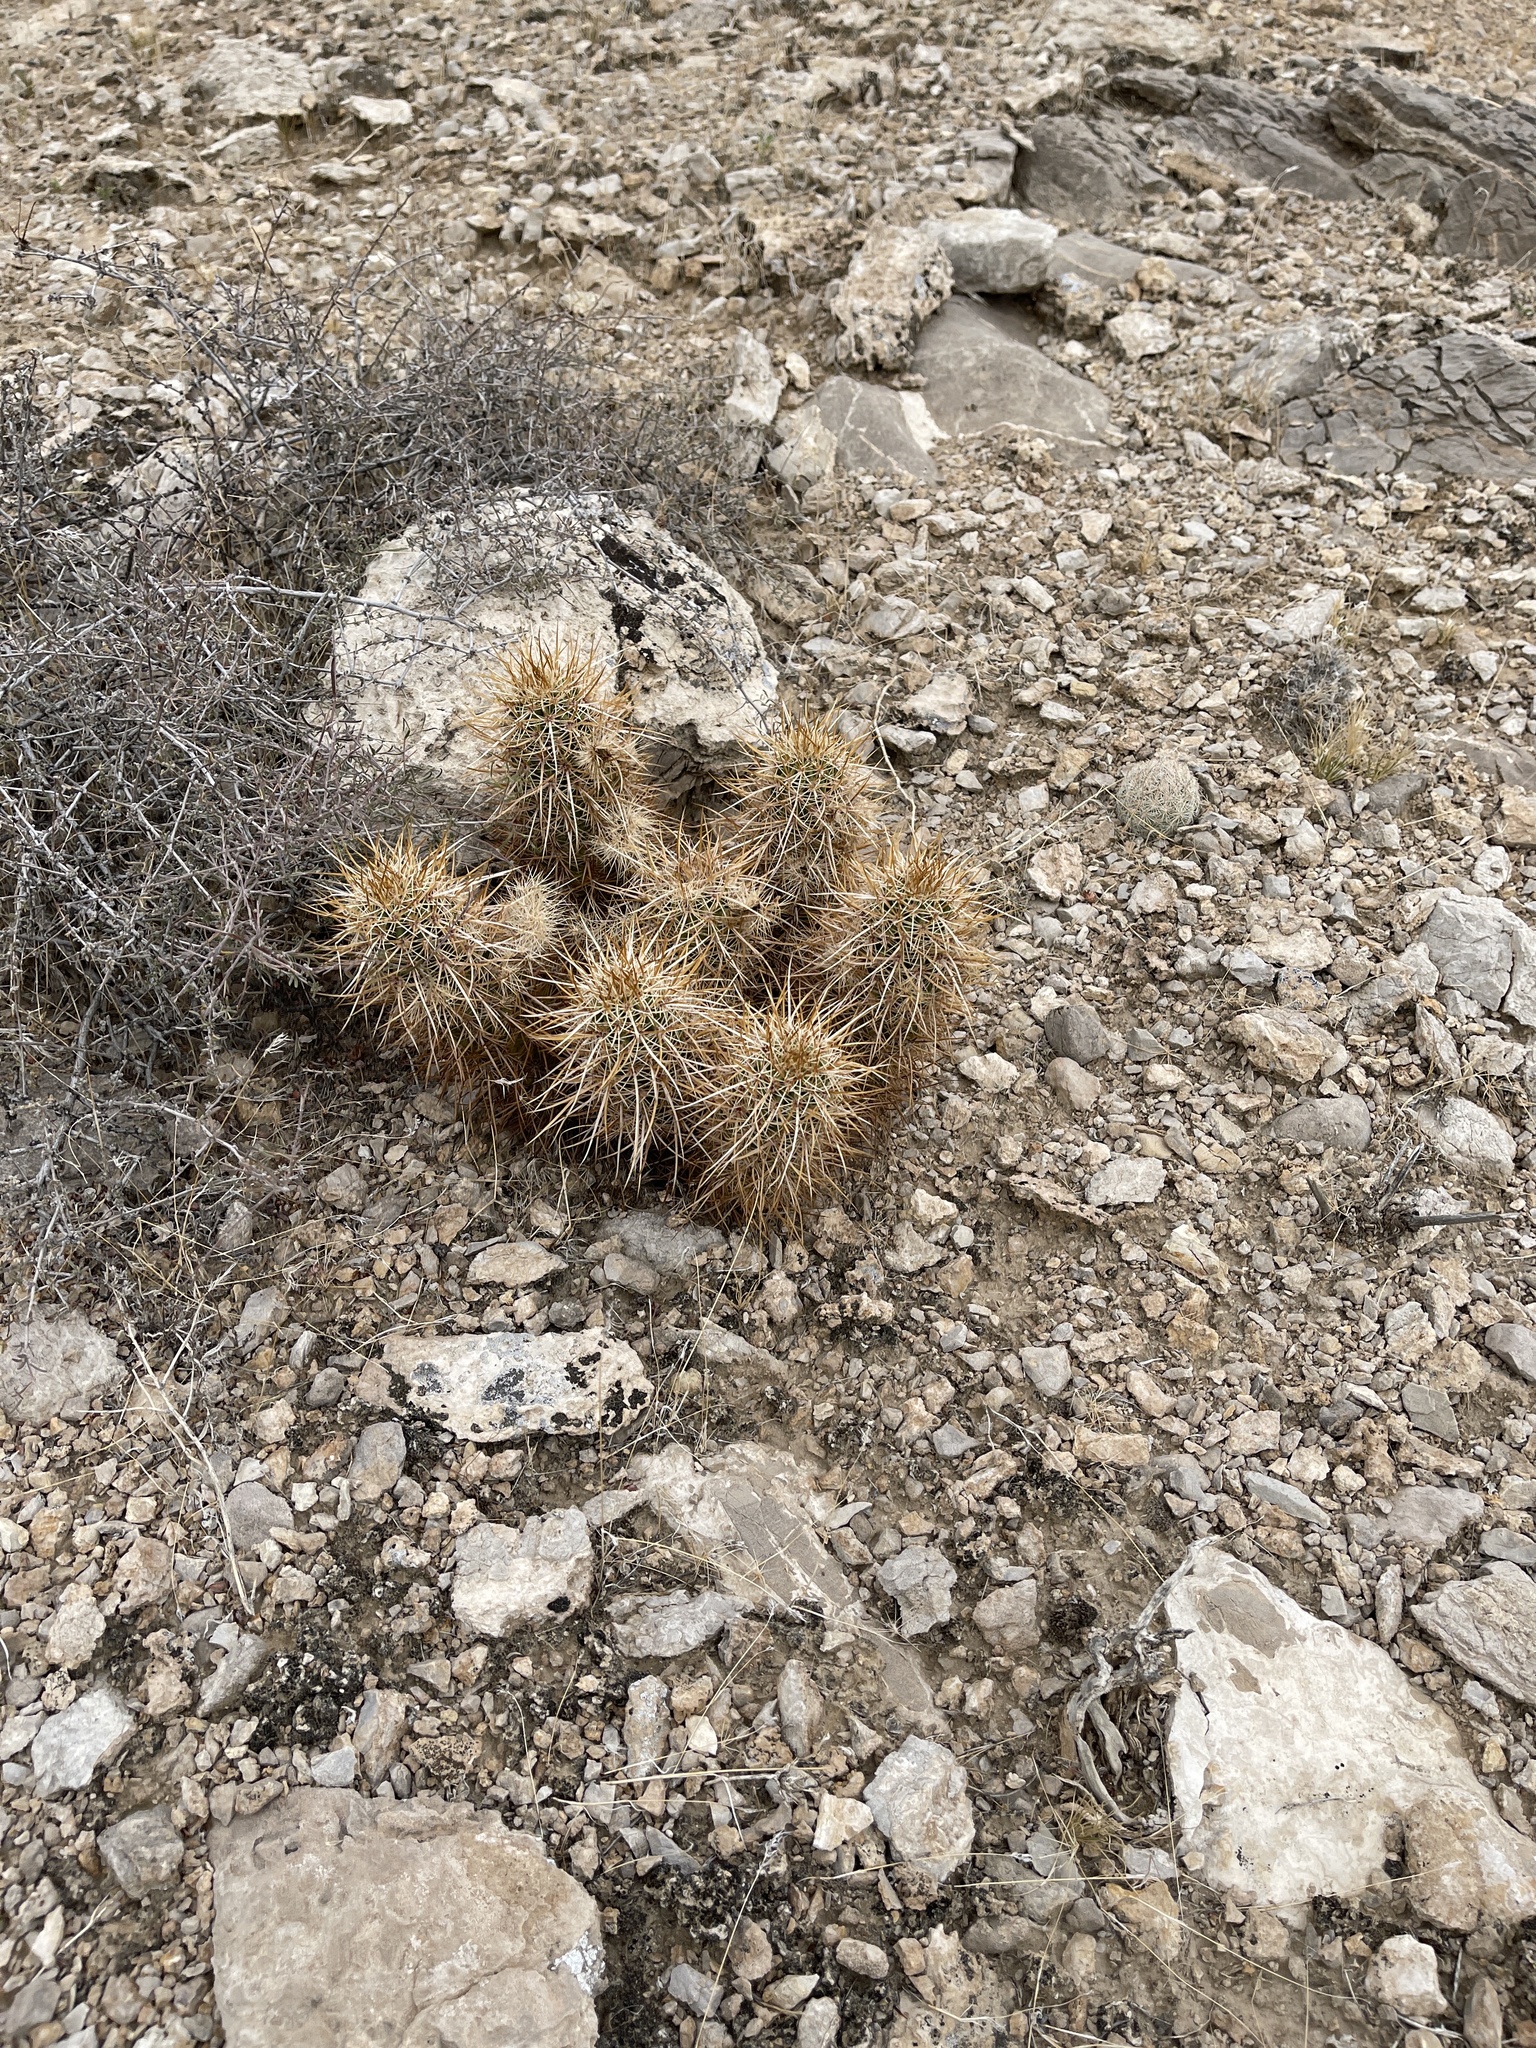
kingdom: Plantae
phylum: Tracheophyta
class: Magnoliopsida
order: Caryophyllales
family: Cactaceae
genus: Echinocereus
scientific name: Echinocereus engelmannii
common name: Engelmann's hedgehog cactus
